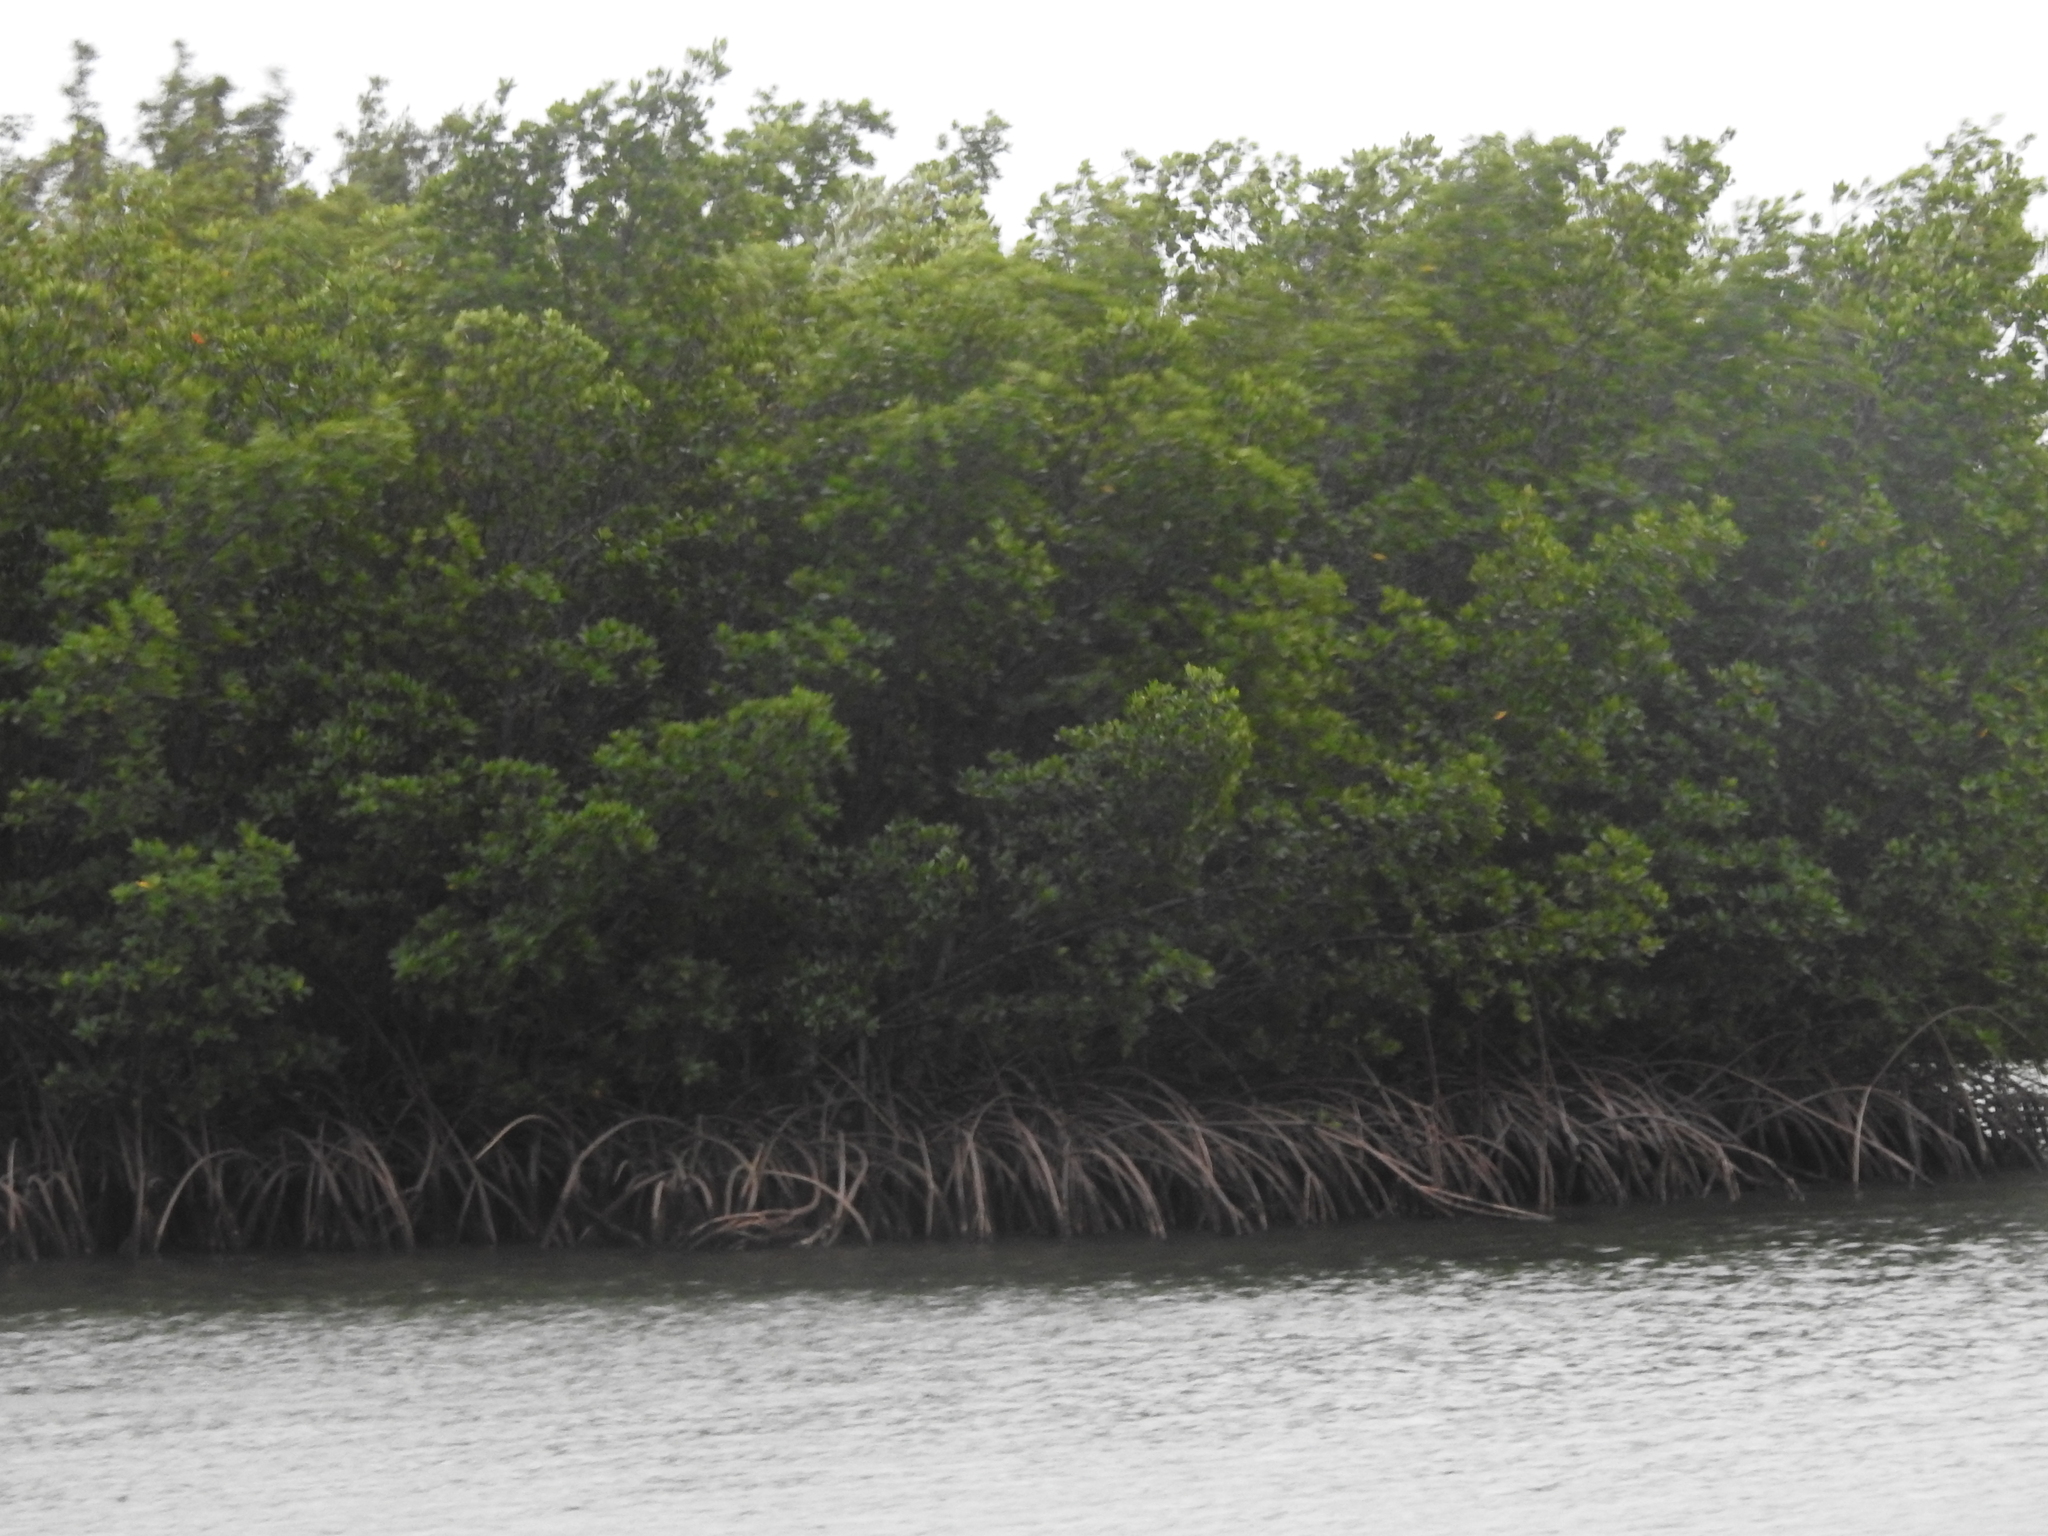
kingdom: Plantae
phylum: Tracheophyta
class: Magnoliopsida
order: Malpighiales
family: Rhizophoraceae
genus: Rhizophora
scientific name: Rhizophora mangle
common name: Red mangrove
